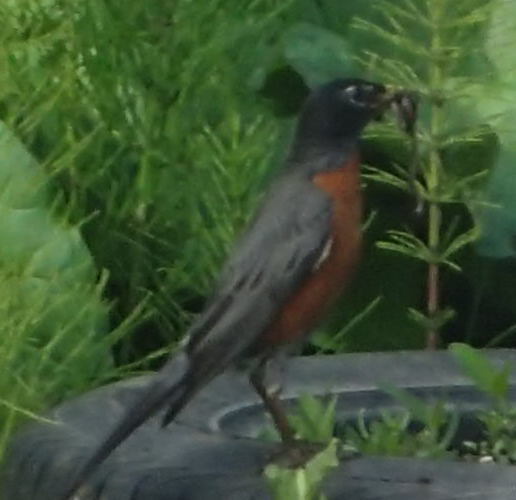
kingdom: Animalia
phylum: Chordata
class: Aves
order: Passeriformes
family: Turdidae
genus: Turdus
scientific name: Turdus migratorius
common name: American robin
